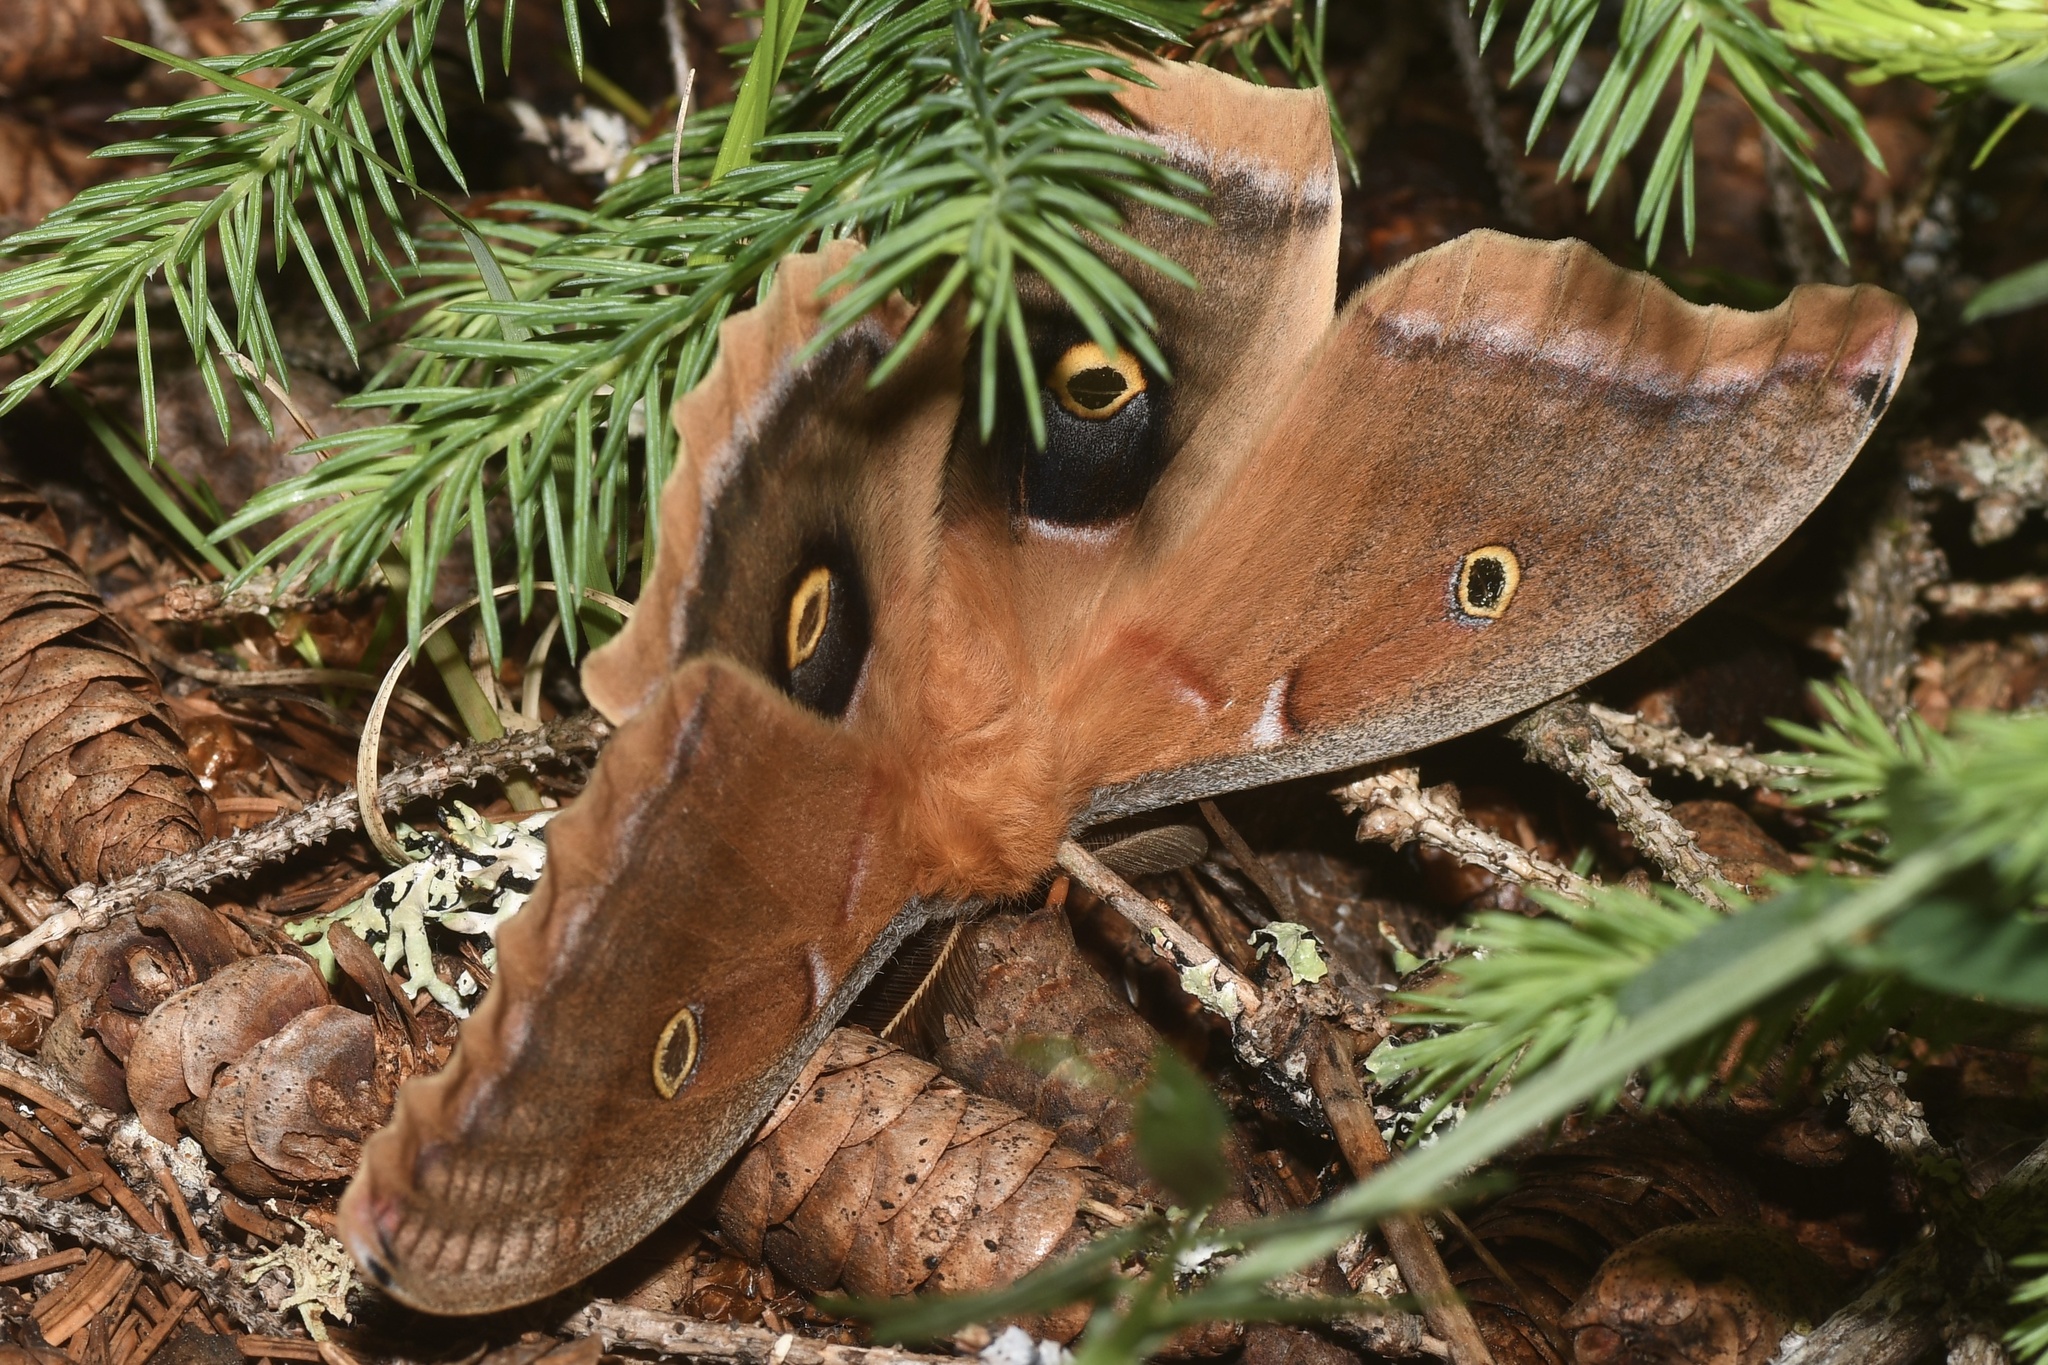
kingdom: Animalia
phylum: Arthropoda
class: Insecta
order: Lepidoptera
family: Saturniidae
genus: Antheraea
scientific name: Antheraea polyphemus
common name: Polyphemus moth
